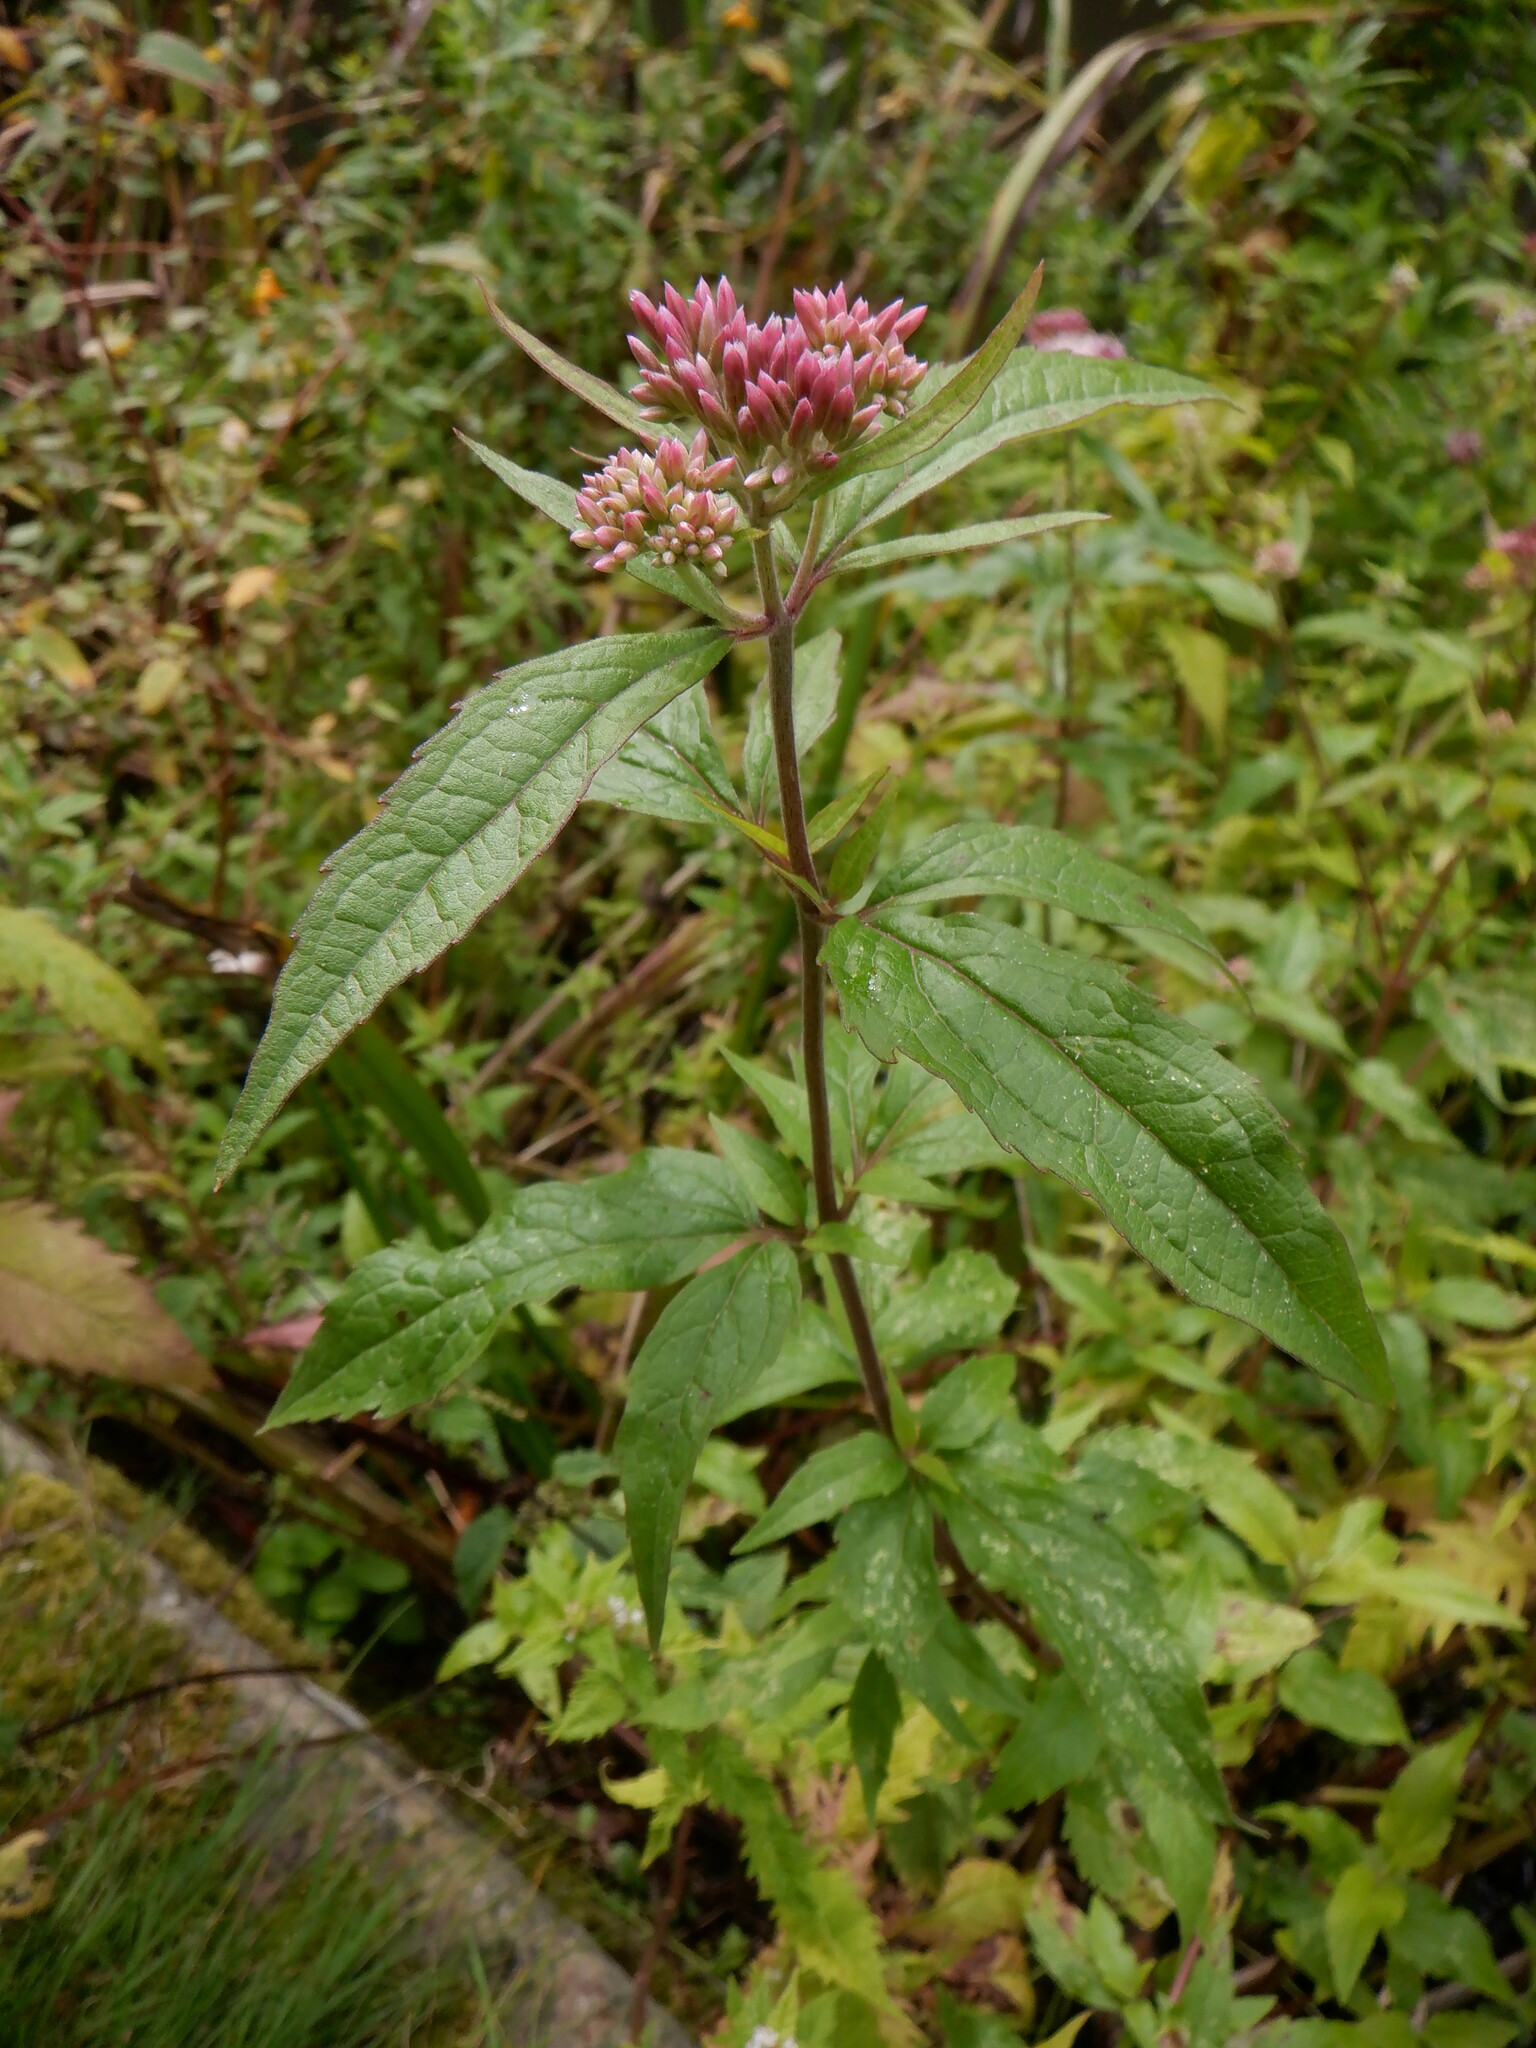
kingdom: Plantae
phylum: Tracheophyta
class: Magnoliopsida
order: Asterales
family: Asteraceae
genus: Eupatorium
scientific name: Eupatorium cannabinum
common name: Hemp-agrimony
